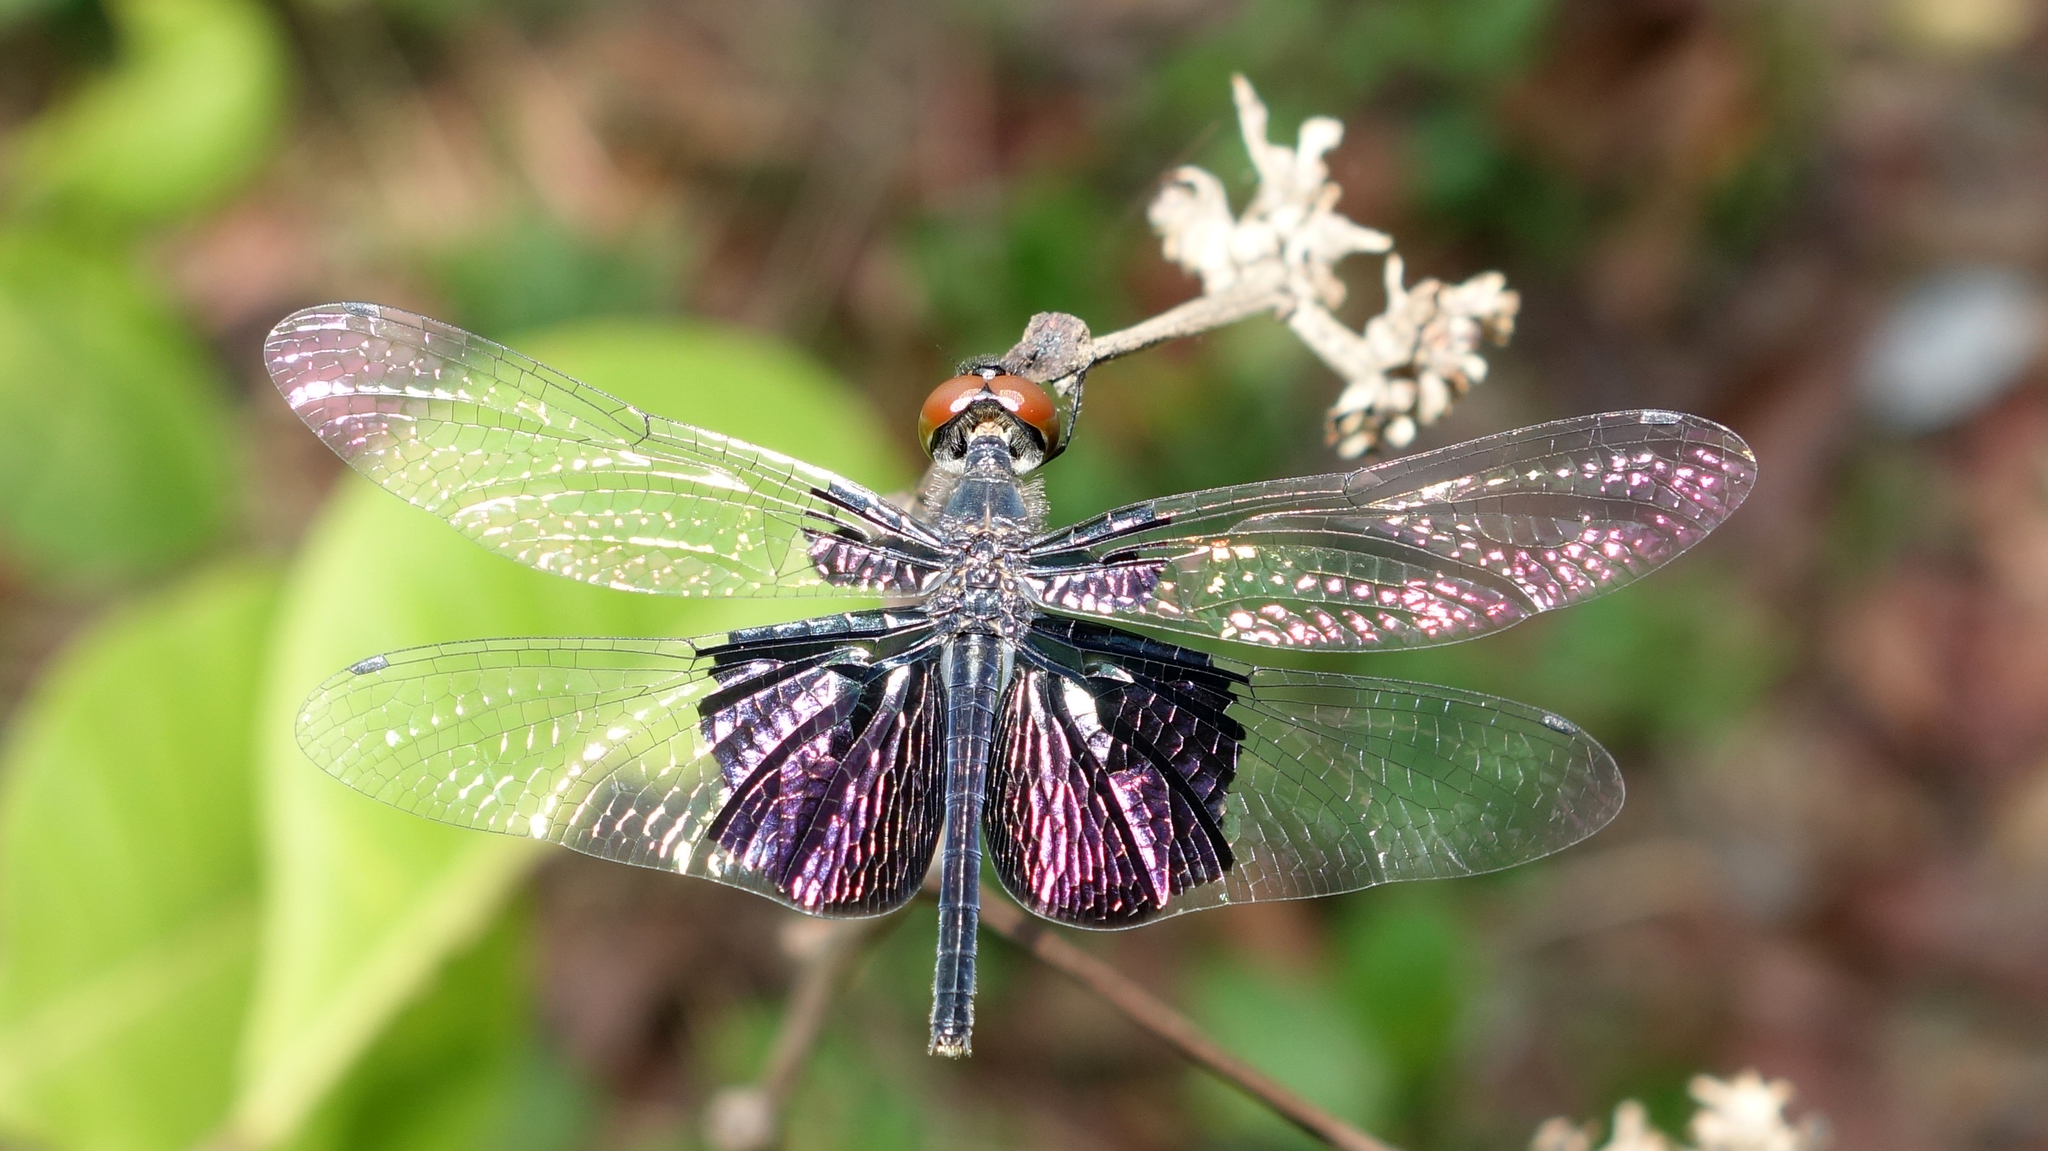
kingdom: Animalia
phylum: Arthropoda
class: Insecta
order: Odonata
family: Libellulidae
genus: Rhyothemis
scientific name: Rhyothemis triangularis
